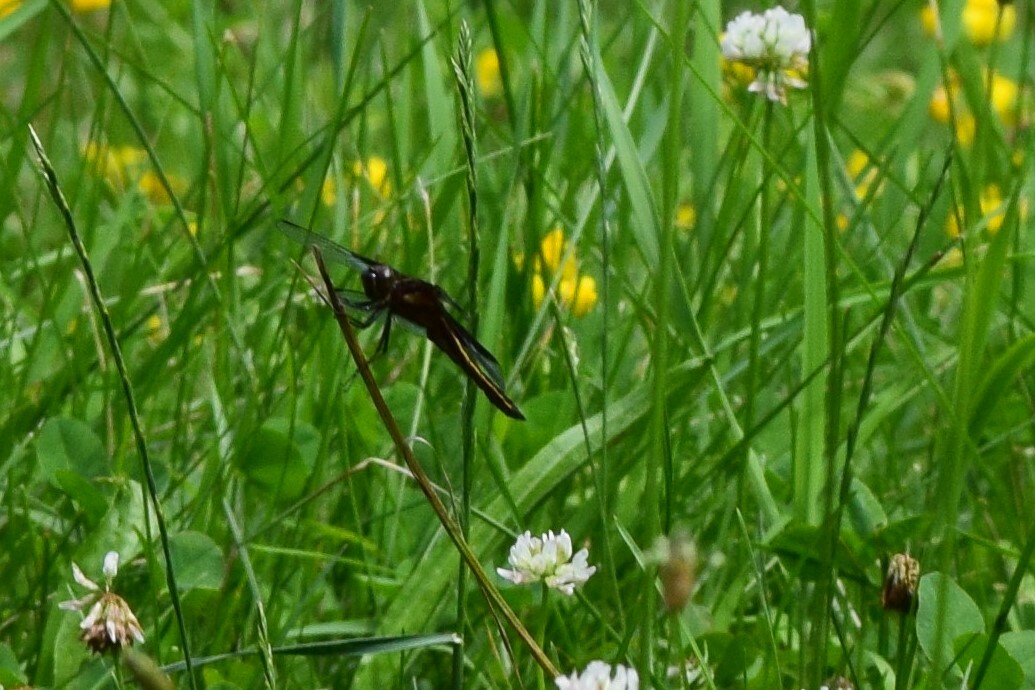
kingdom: Animalia
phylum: Arthropoda
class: Insecta
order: Odonata
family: Libellulidae
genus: Libellula
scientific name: Libellula luctuosa
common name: Widow skimmer
